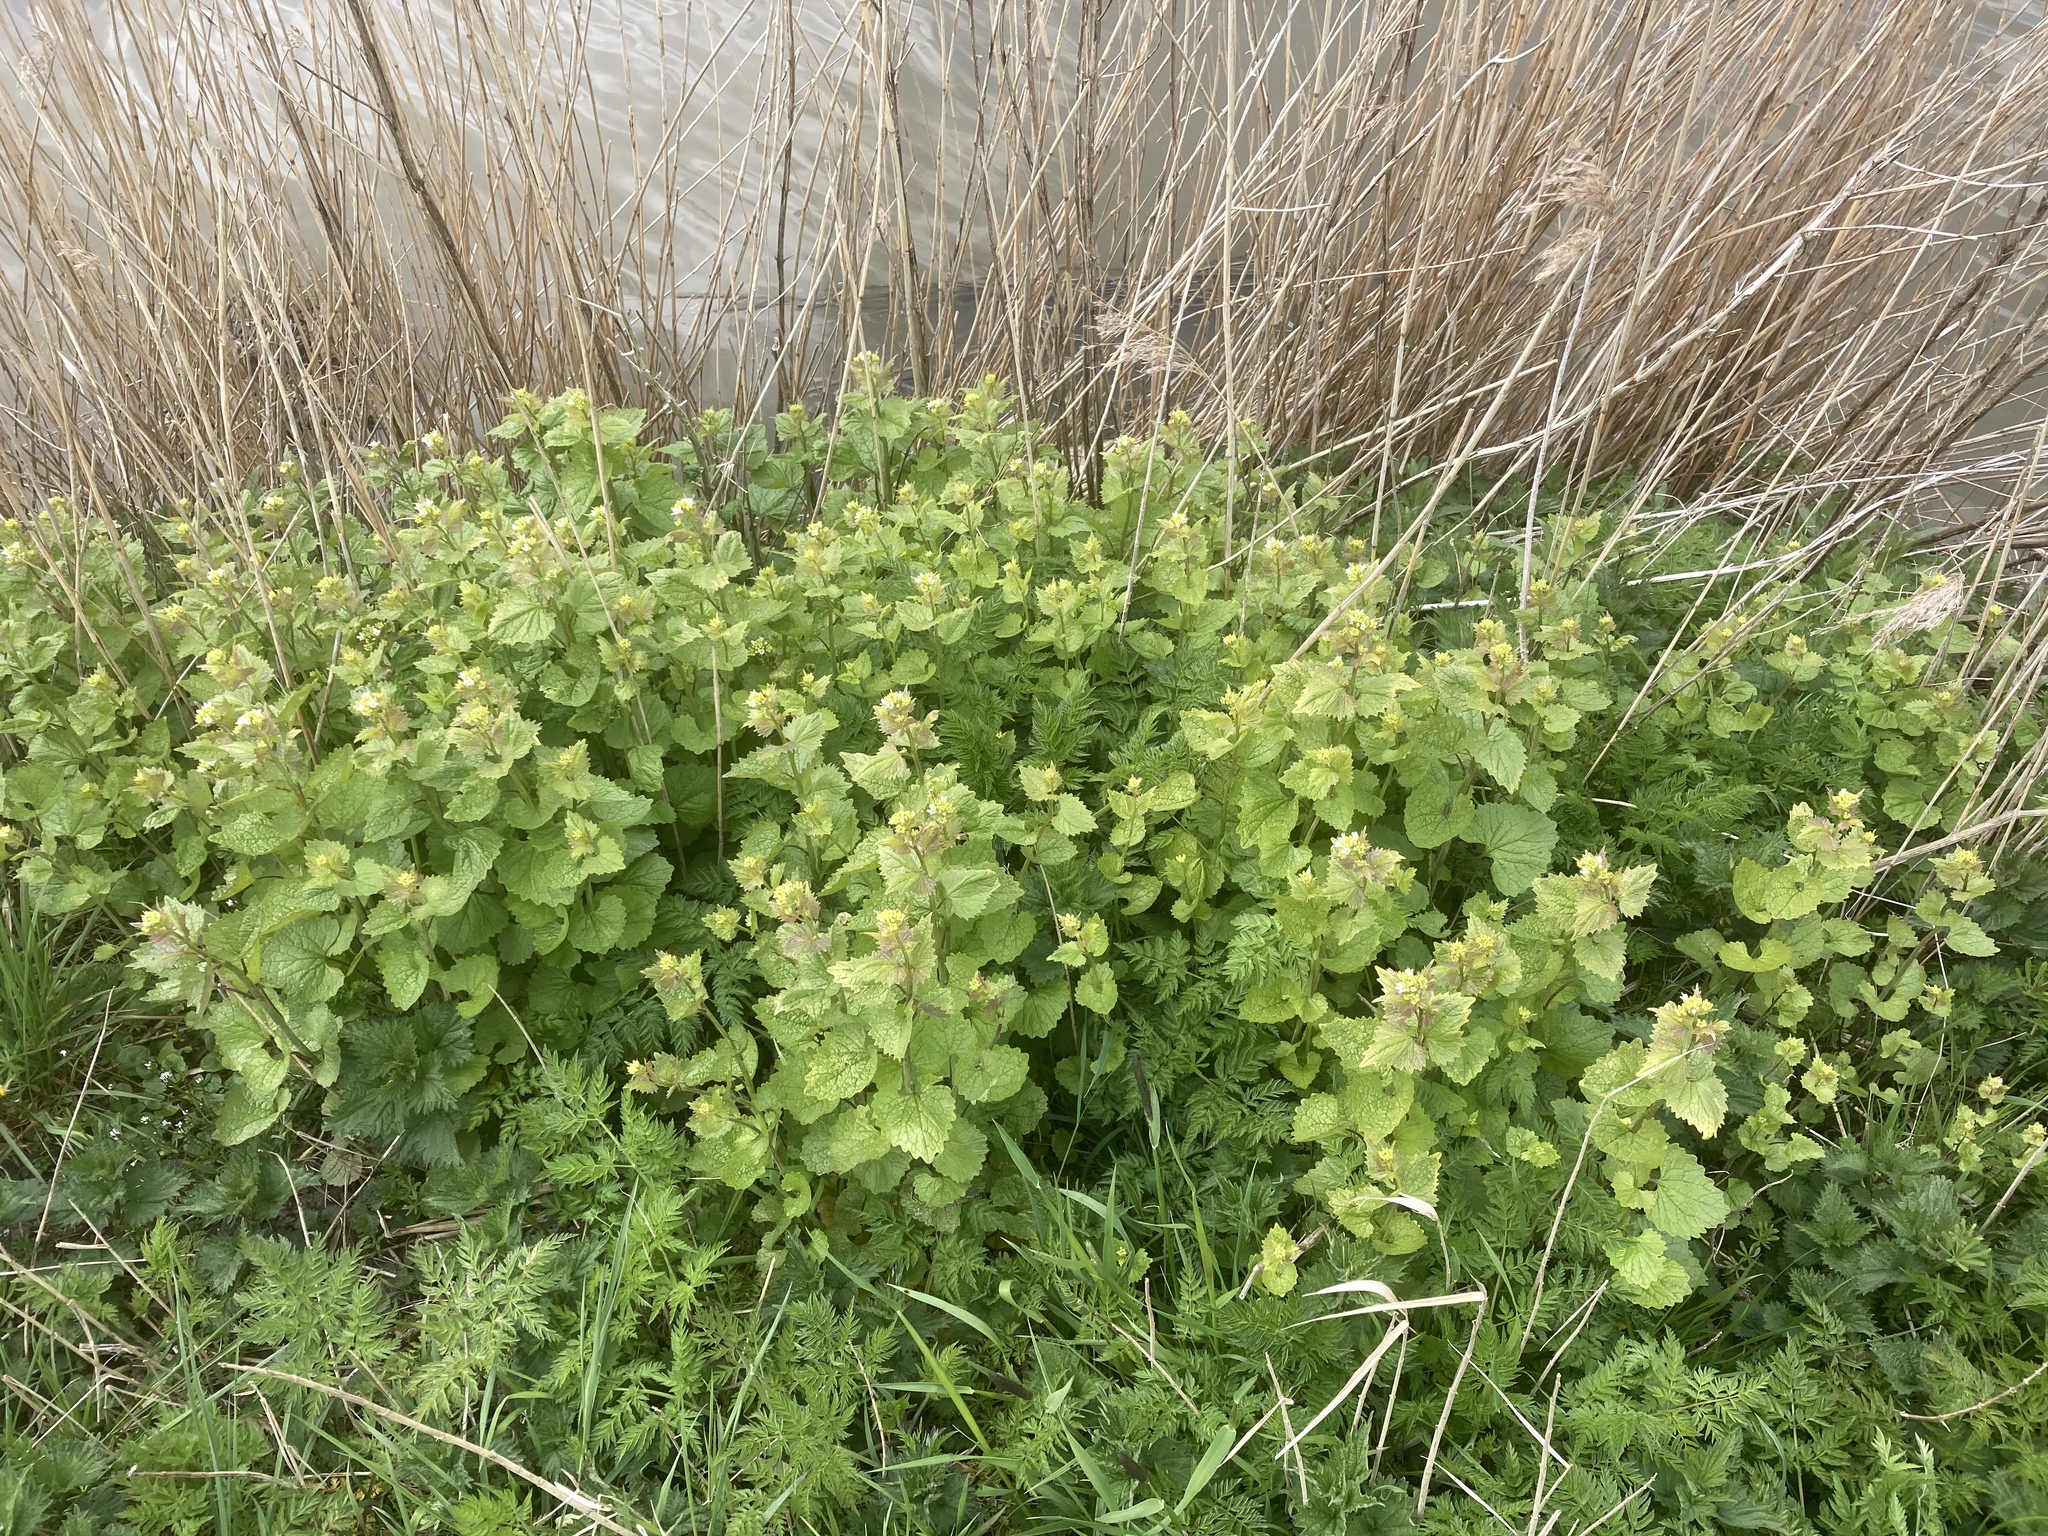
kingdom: Plantae
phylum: Tracheophyta
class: Magnoliopsida
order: Brassicales
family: Brassicaceae
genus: Alliaria
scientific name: Alliaria petiolata
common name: Garlic mustard
